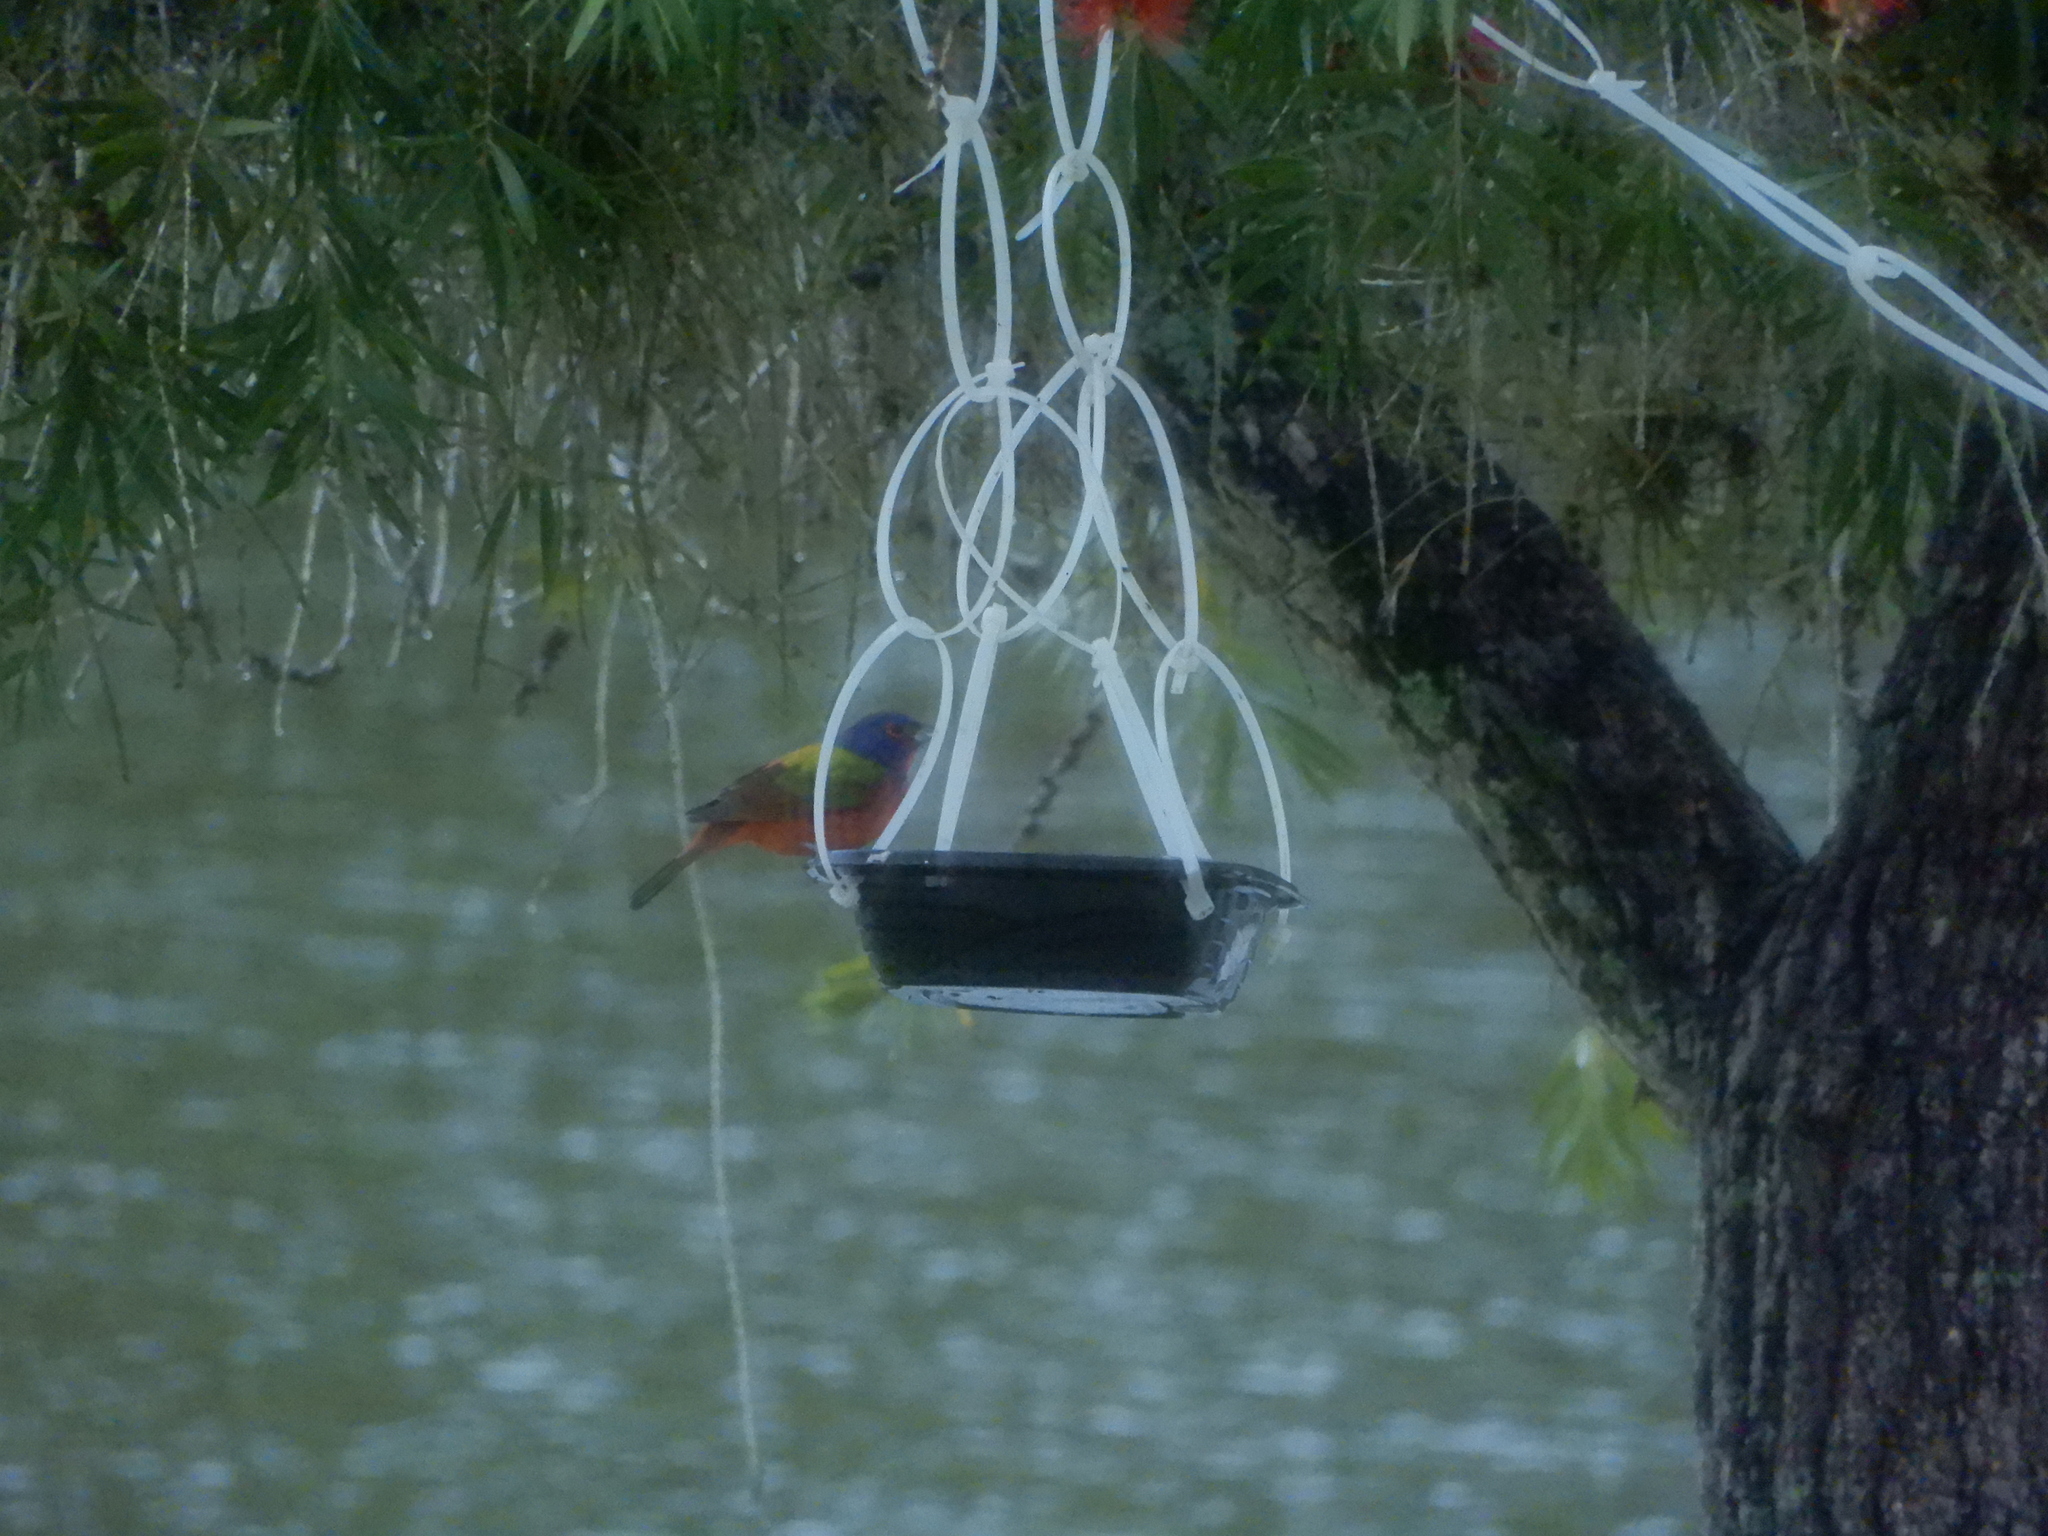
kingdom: Animalia
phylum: Chordata
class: Aves
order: Passeriformes
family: Cardinalidae
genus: Passerina
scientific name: Passerina ciris
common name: Painted bunting
